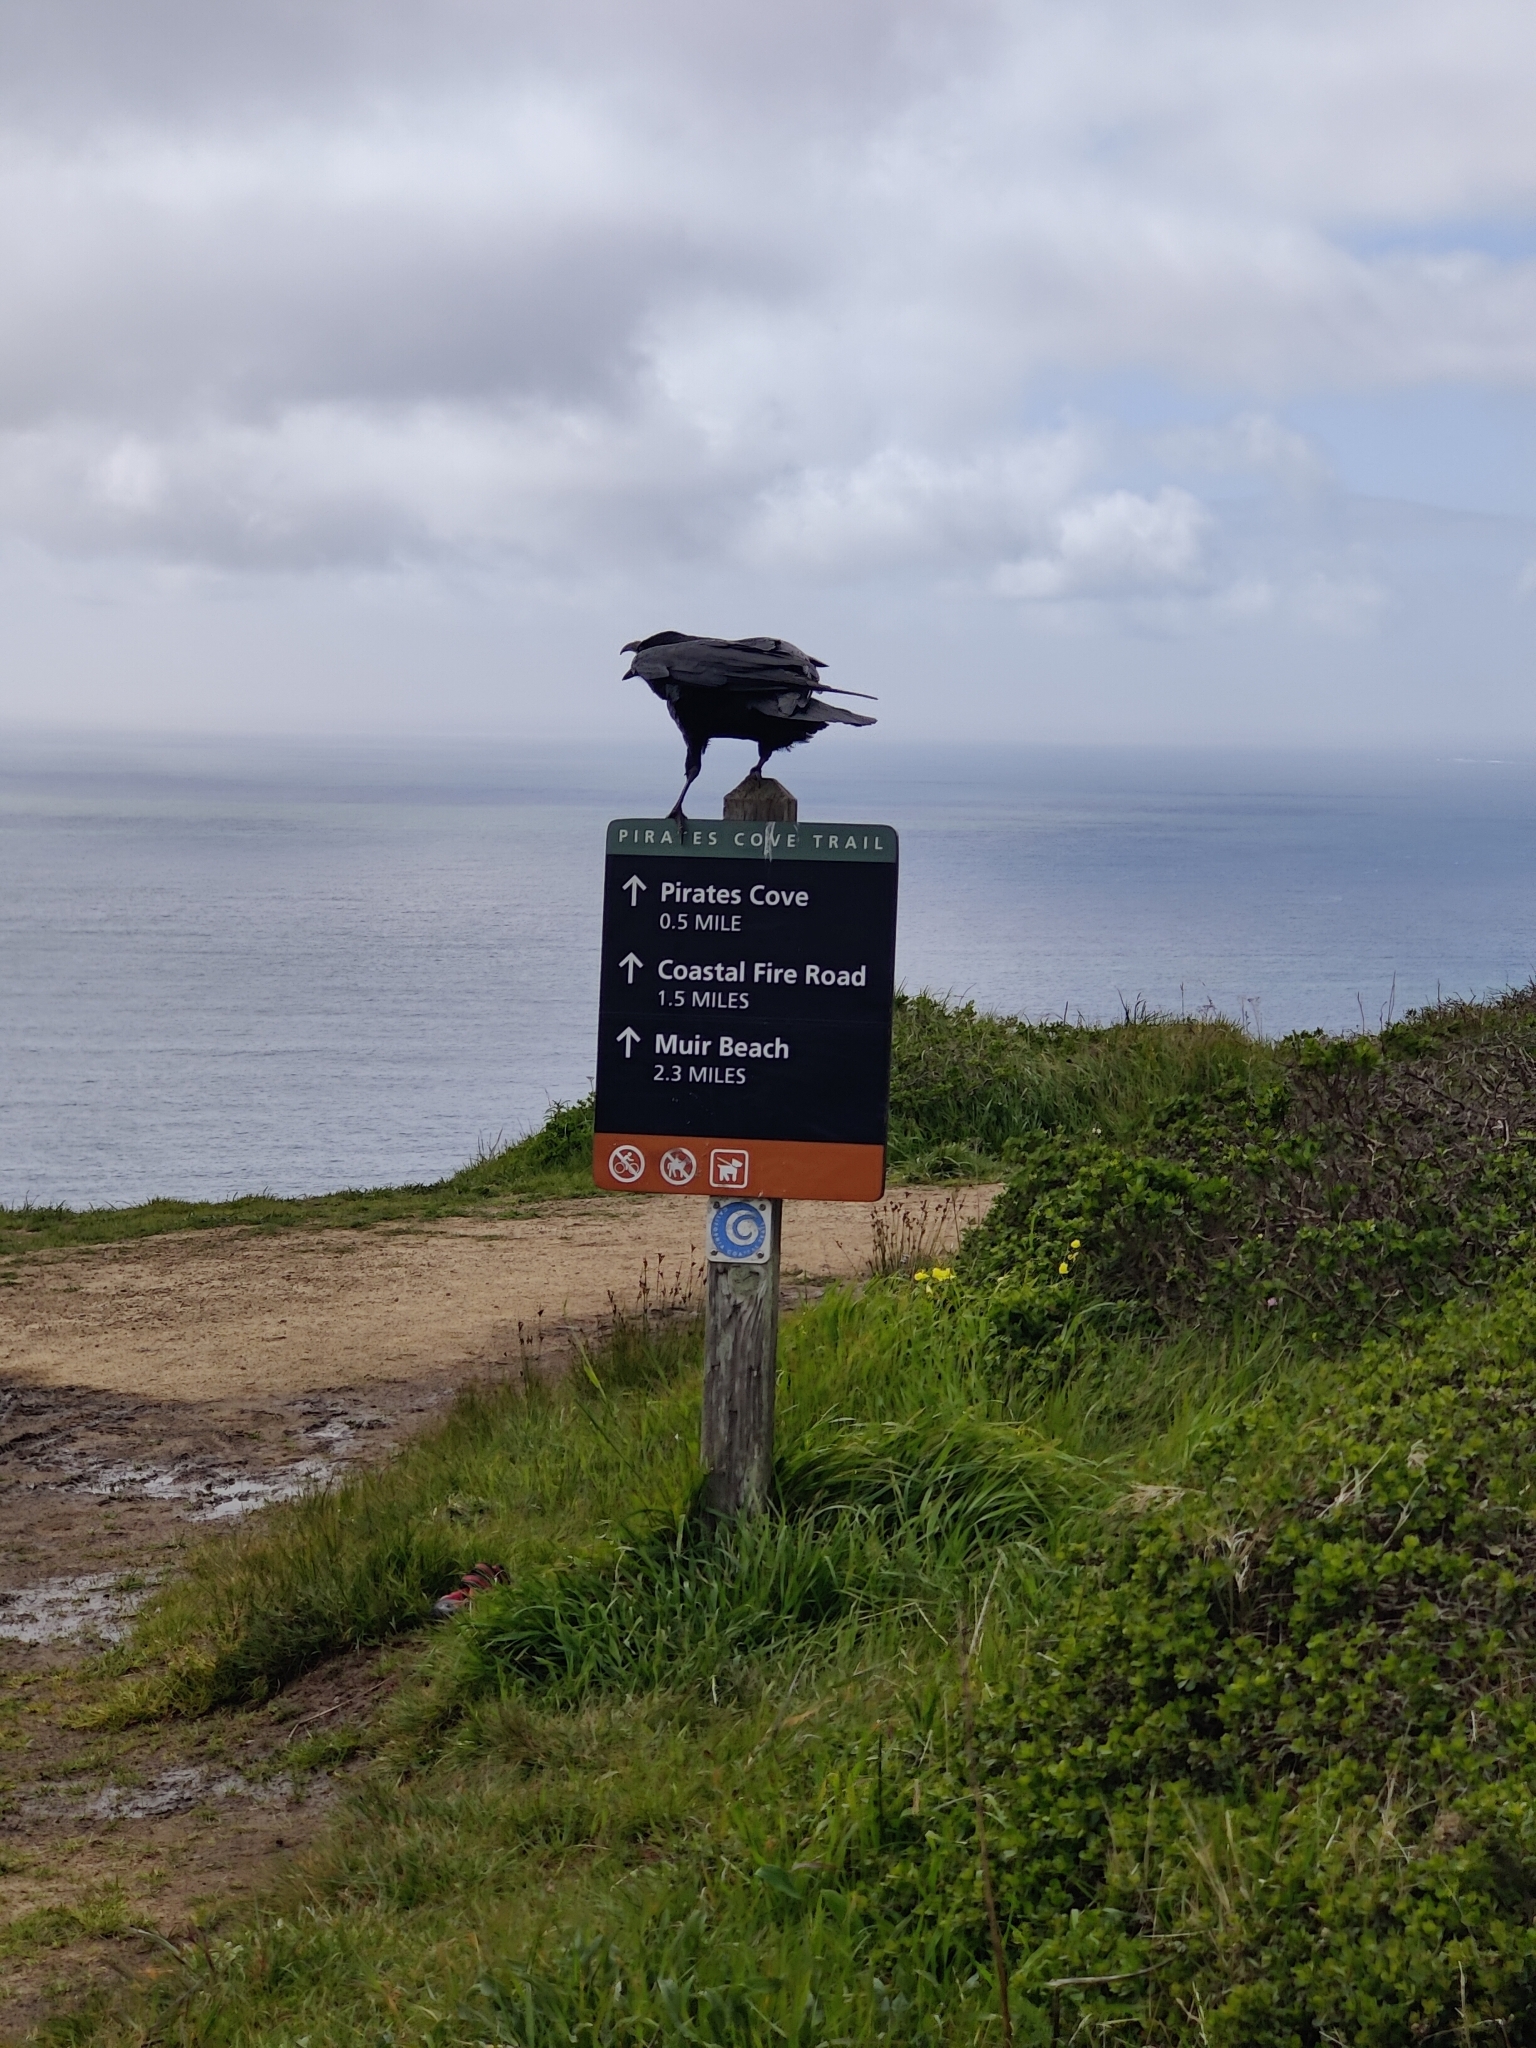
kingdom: Animalia
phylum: Chordata
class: Aves
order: Passeriformes
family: Corvidae
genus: Corvus
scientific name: Corvus corax
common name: Common raven
